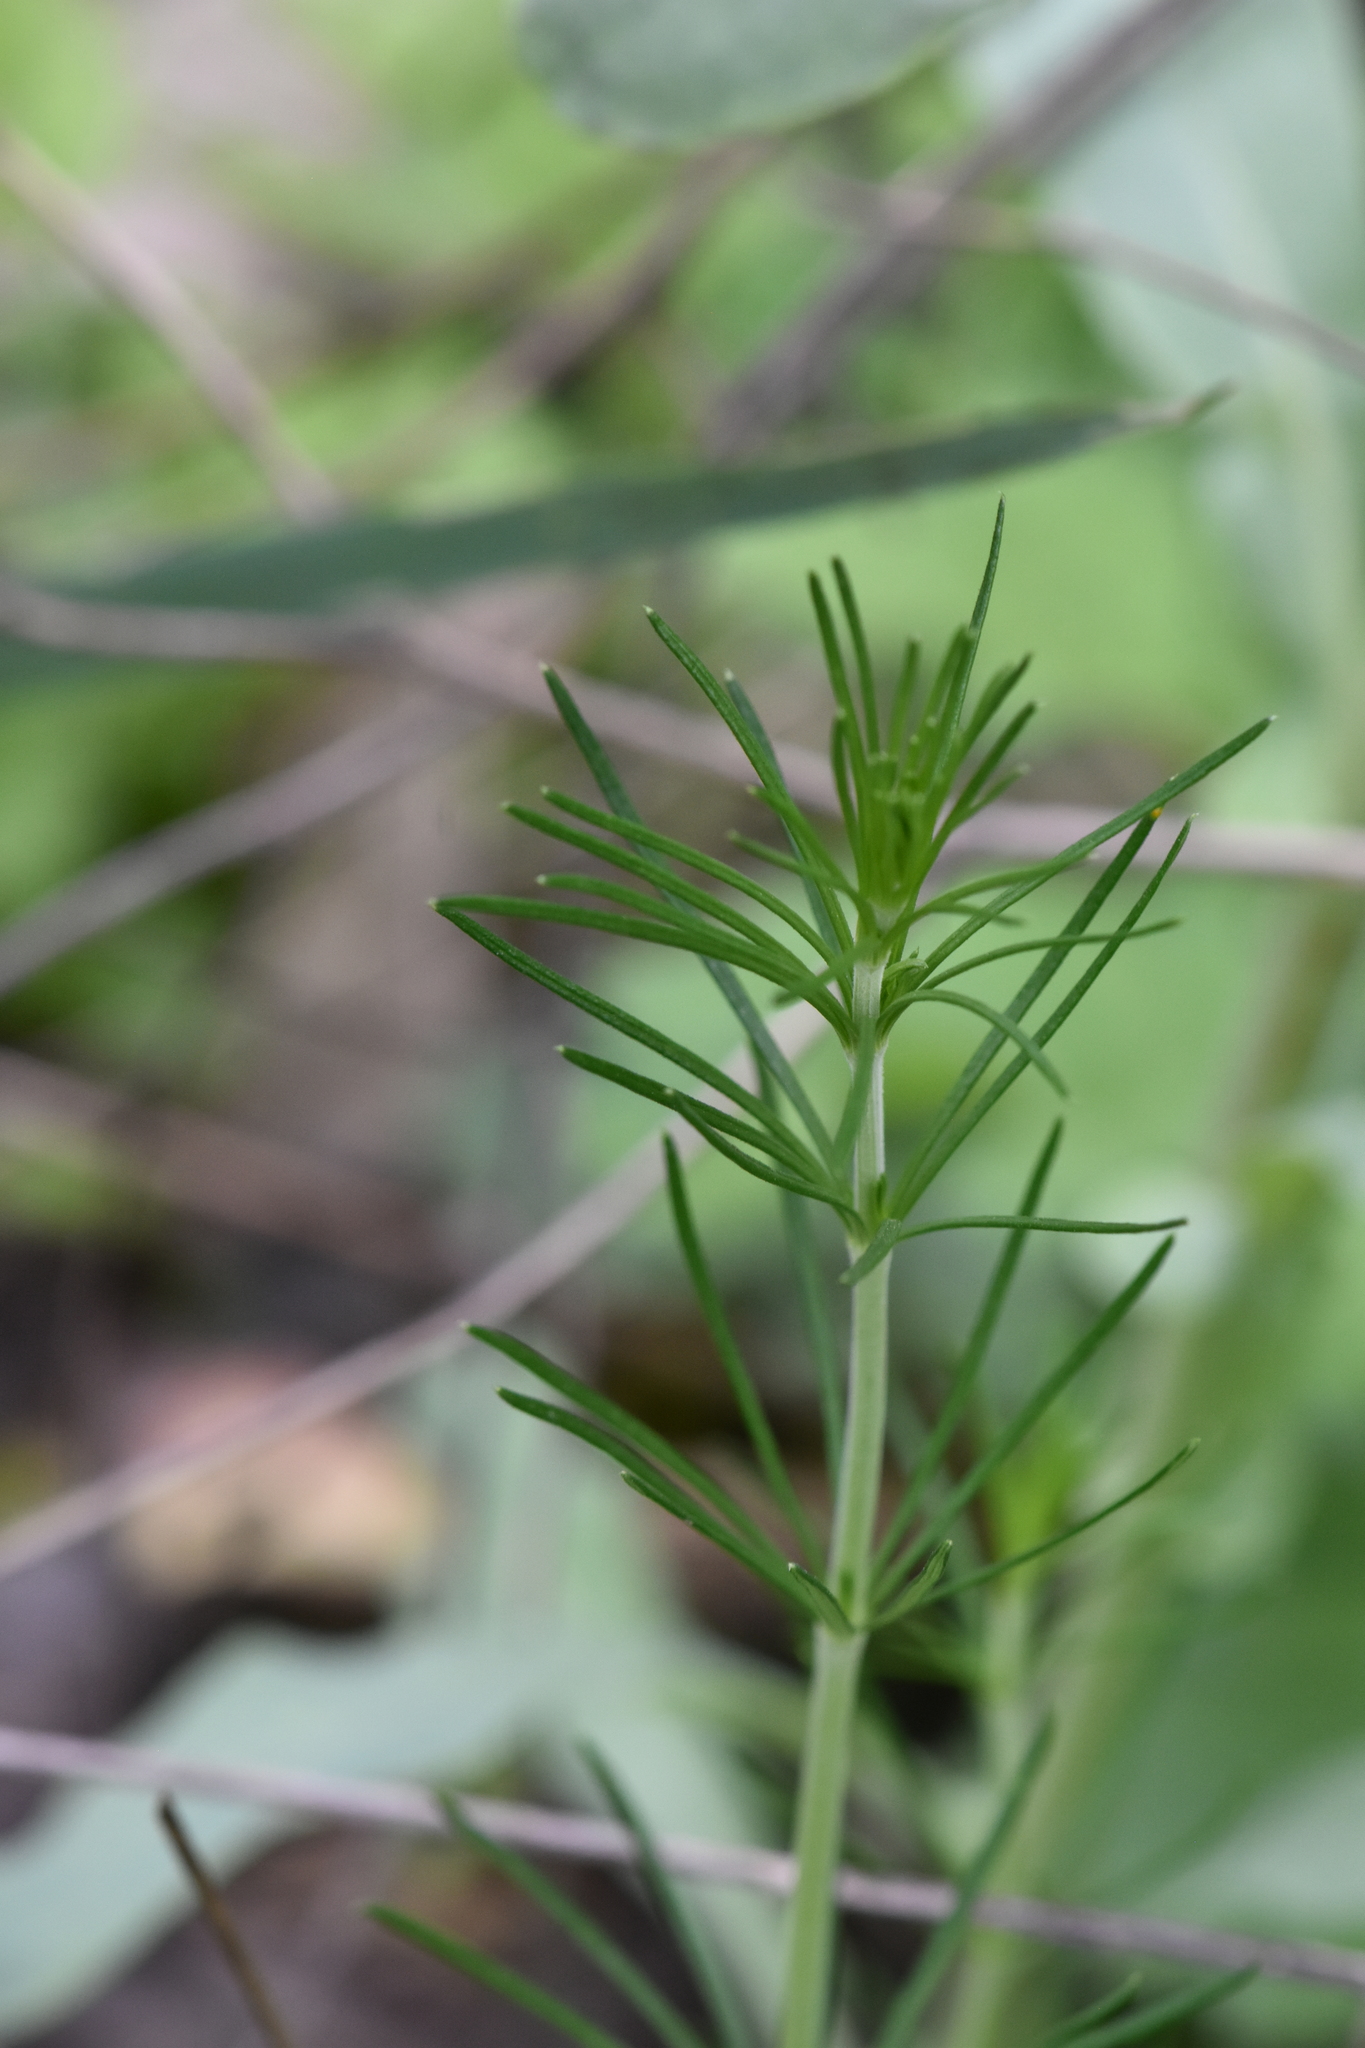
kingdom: Plantae
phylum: Tracheophyta
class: Magnoliopsida
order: Gentianales
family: Rubiaceae
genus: Galium
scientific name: Galium verum
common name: Lady's bedstraw
